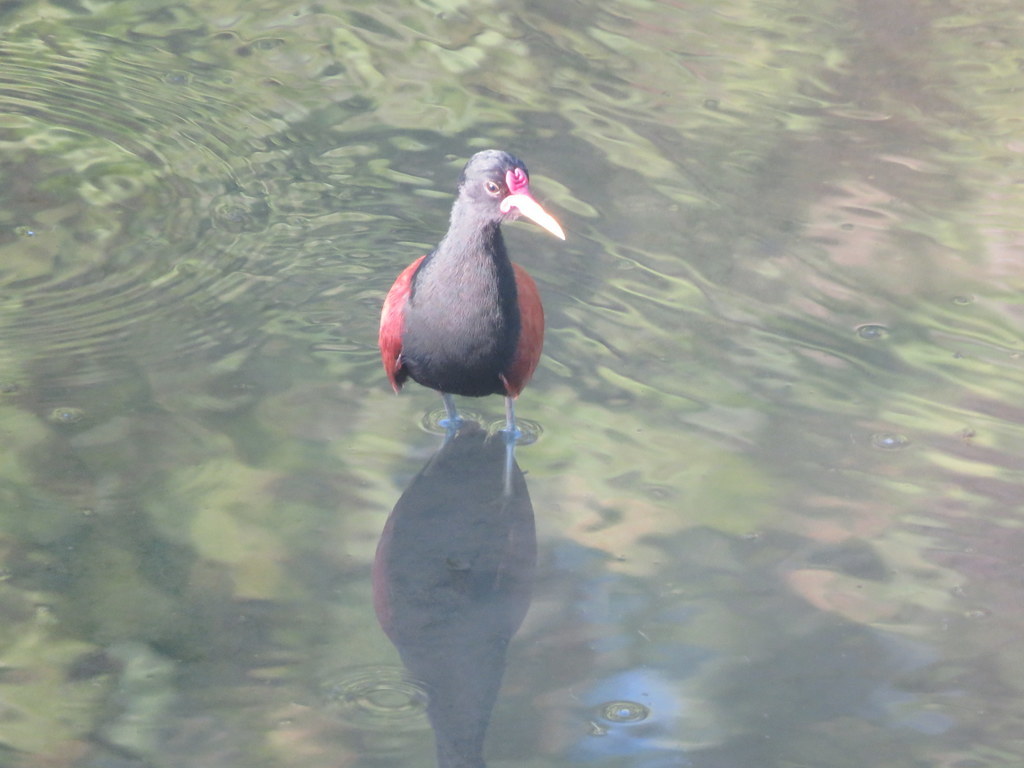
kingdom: Animalia
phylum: Chordata
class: Aves
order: Charadriiformes
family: Jacanidae
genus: Jacana
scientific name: Jacana jacana
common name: Wattled jacana
